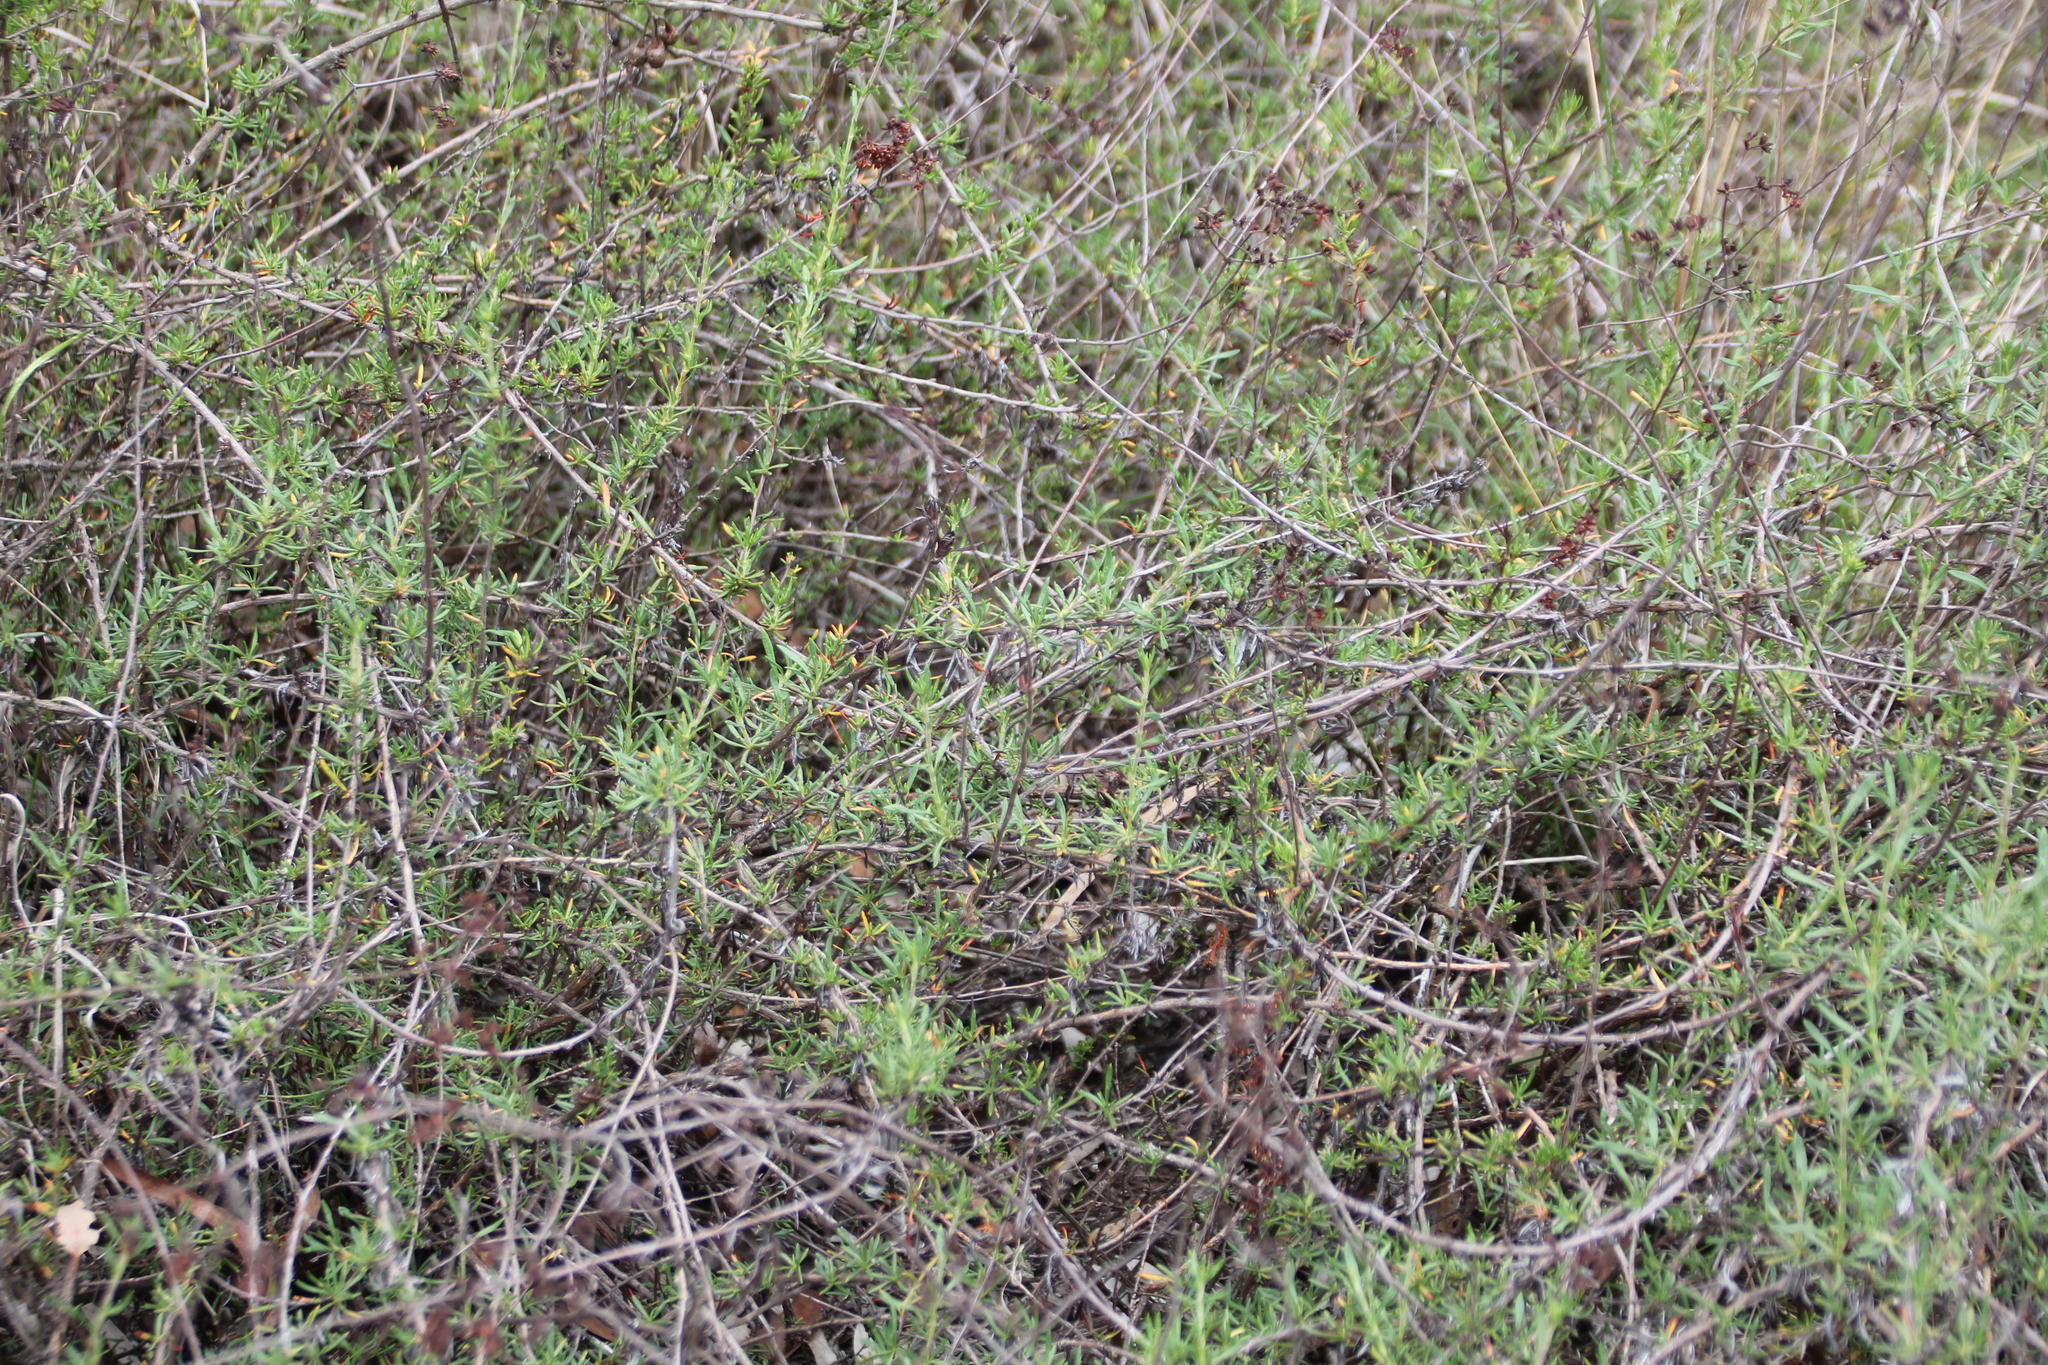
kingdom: Plantae
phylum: Tracheophyta
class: Magnoliopsida
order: Caryophyllales
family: Polygonaceae
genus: Eriogonum
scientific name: Eriogonum fasciculatum
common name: California wild buckwheat
